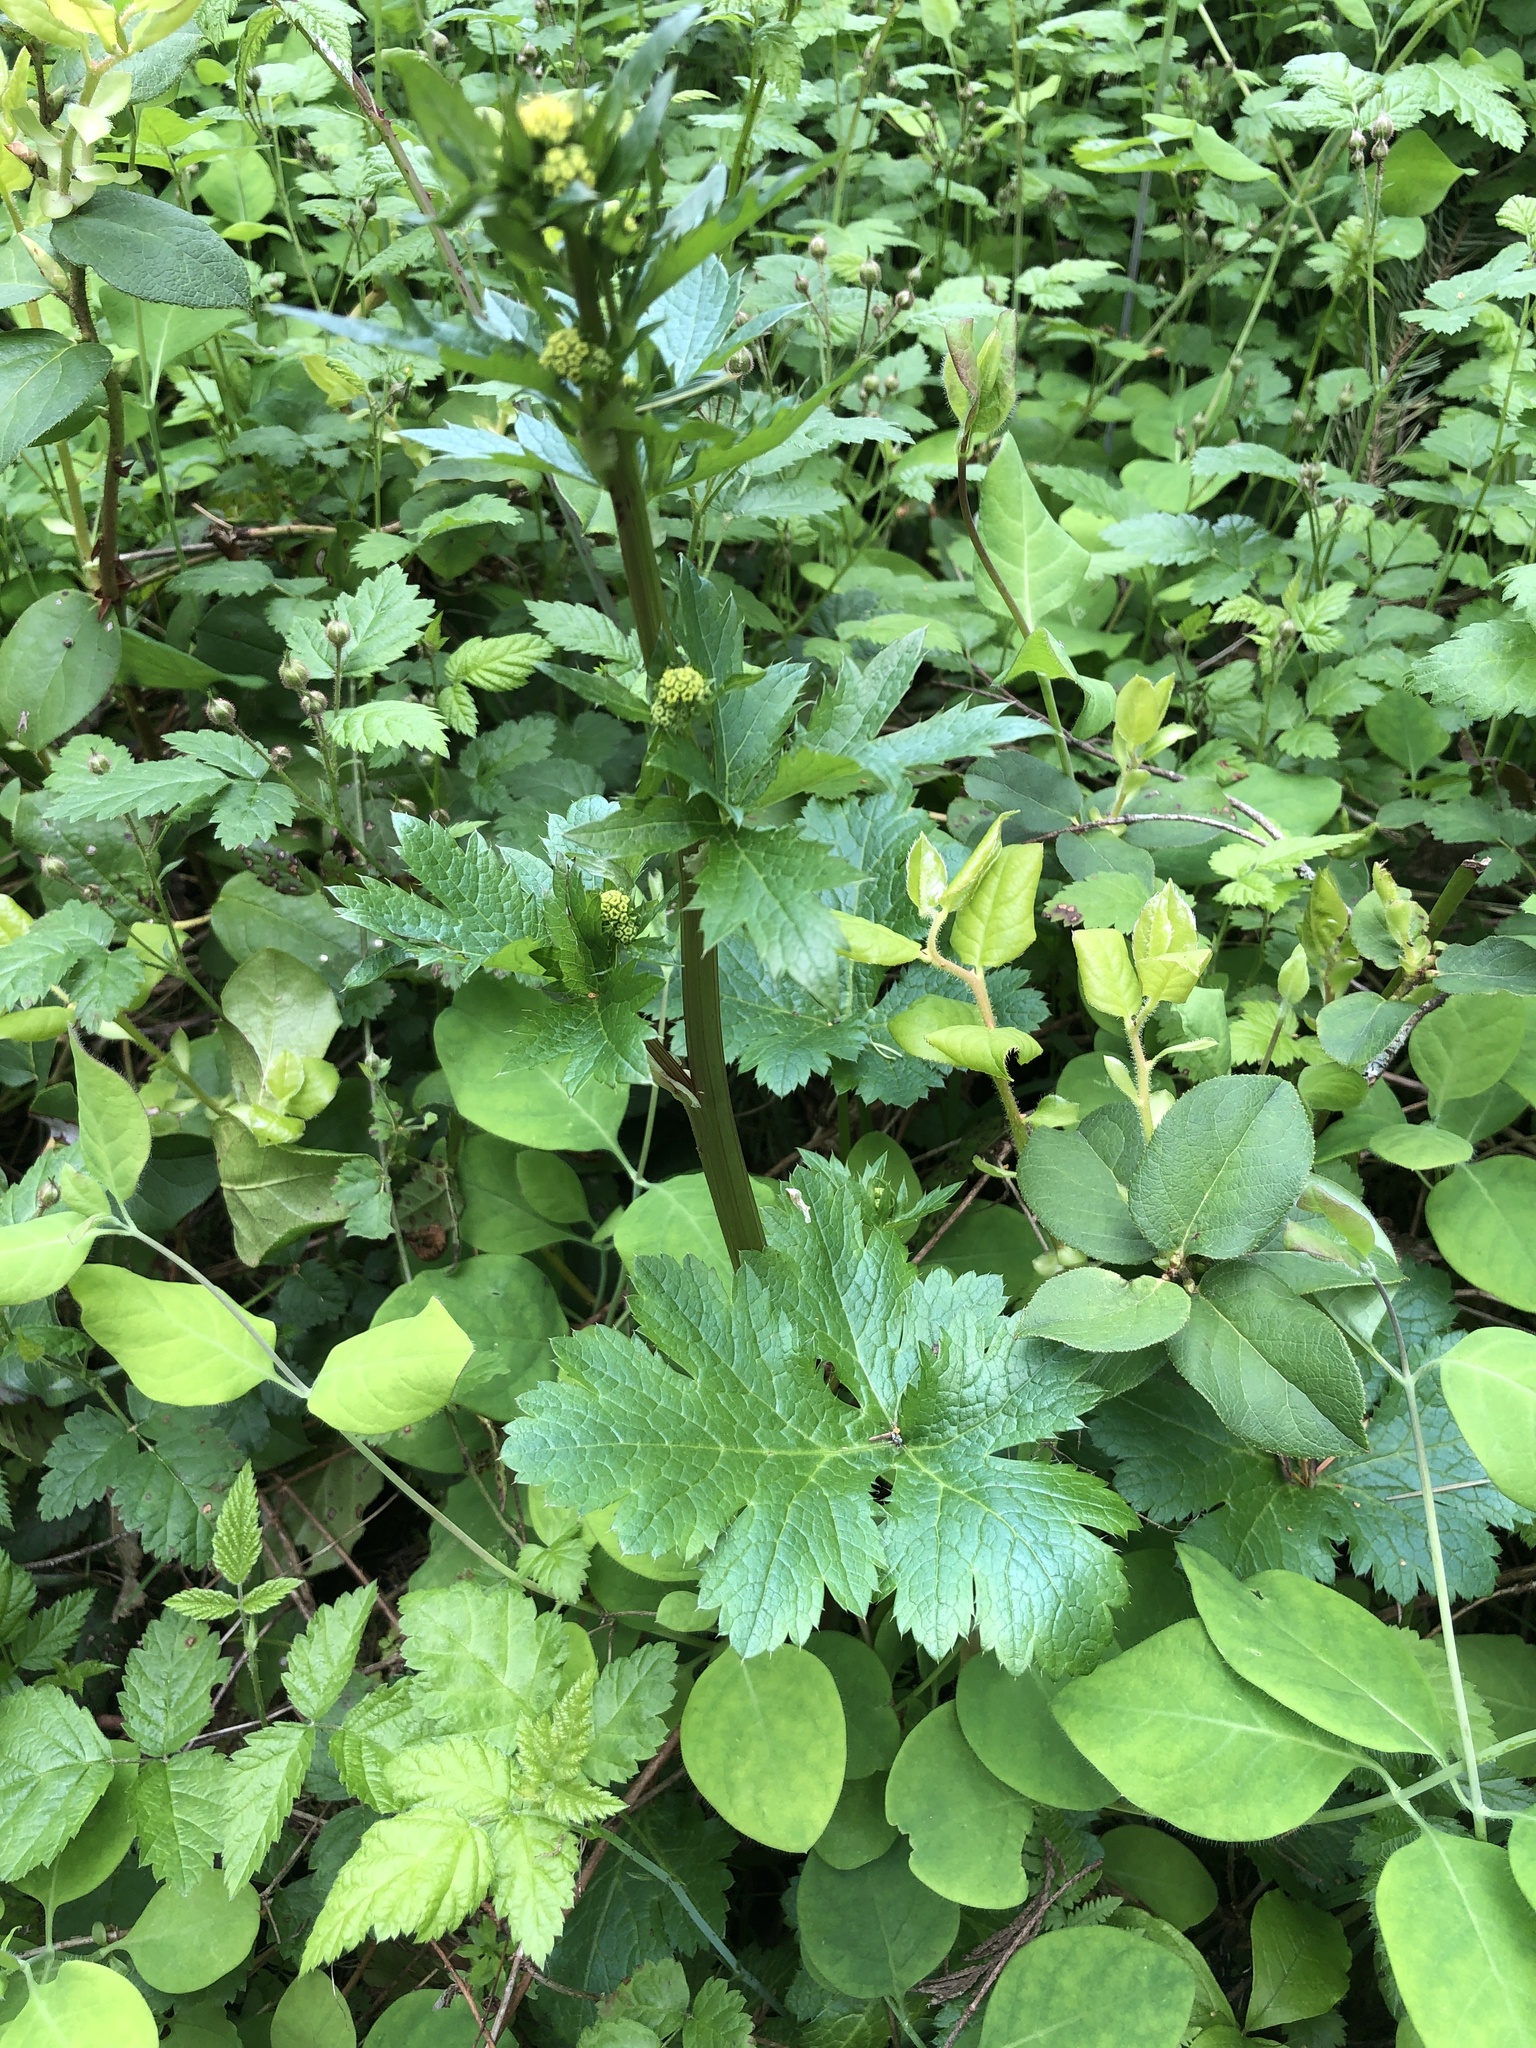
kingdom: Plantae
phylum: Tracheophyta
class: Magnoliopsida
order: Apiales
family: Apiaceae
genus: Sanicula
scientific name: Sanicula crassicaulis
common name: Western snakeroot
